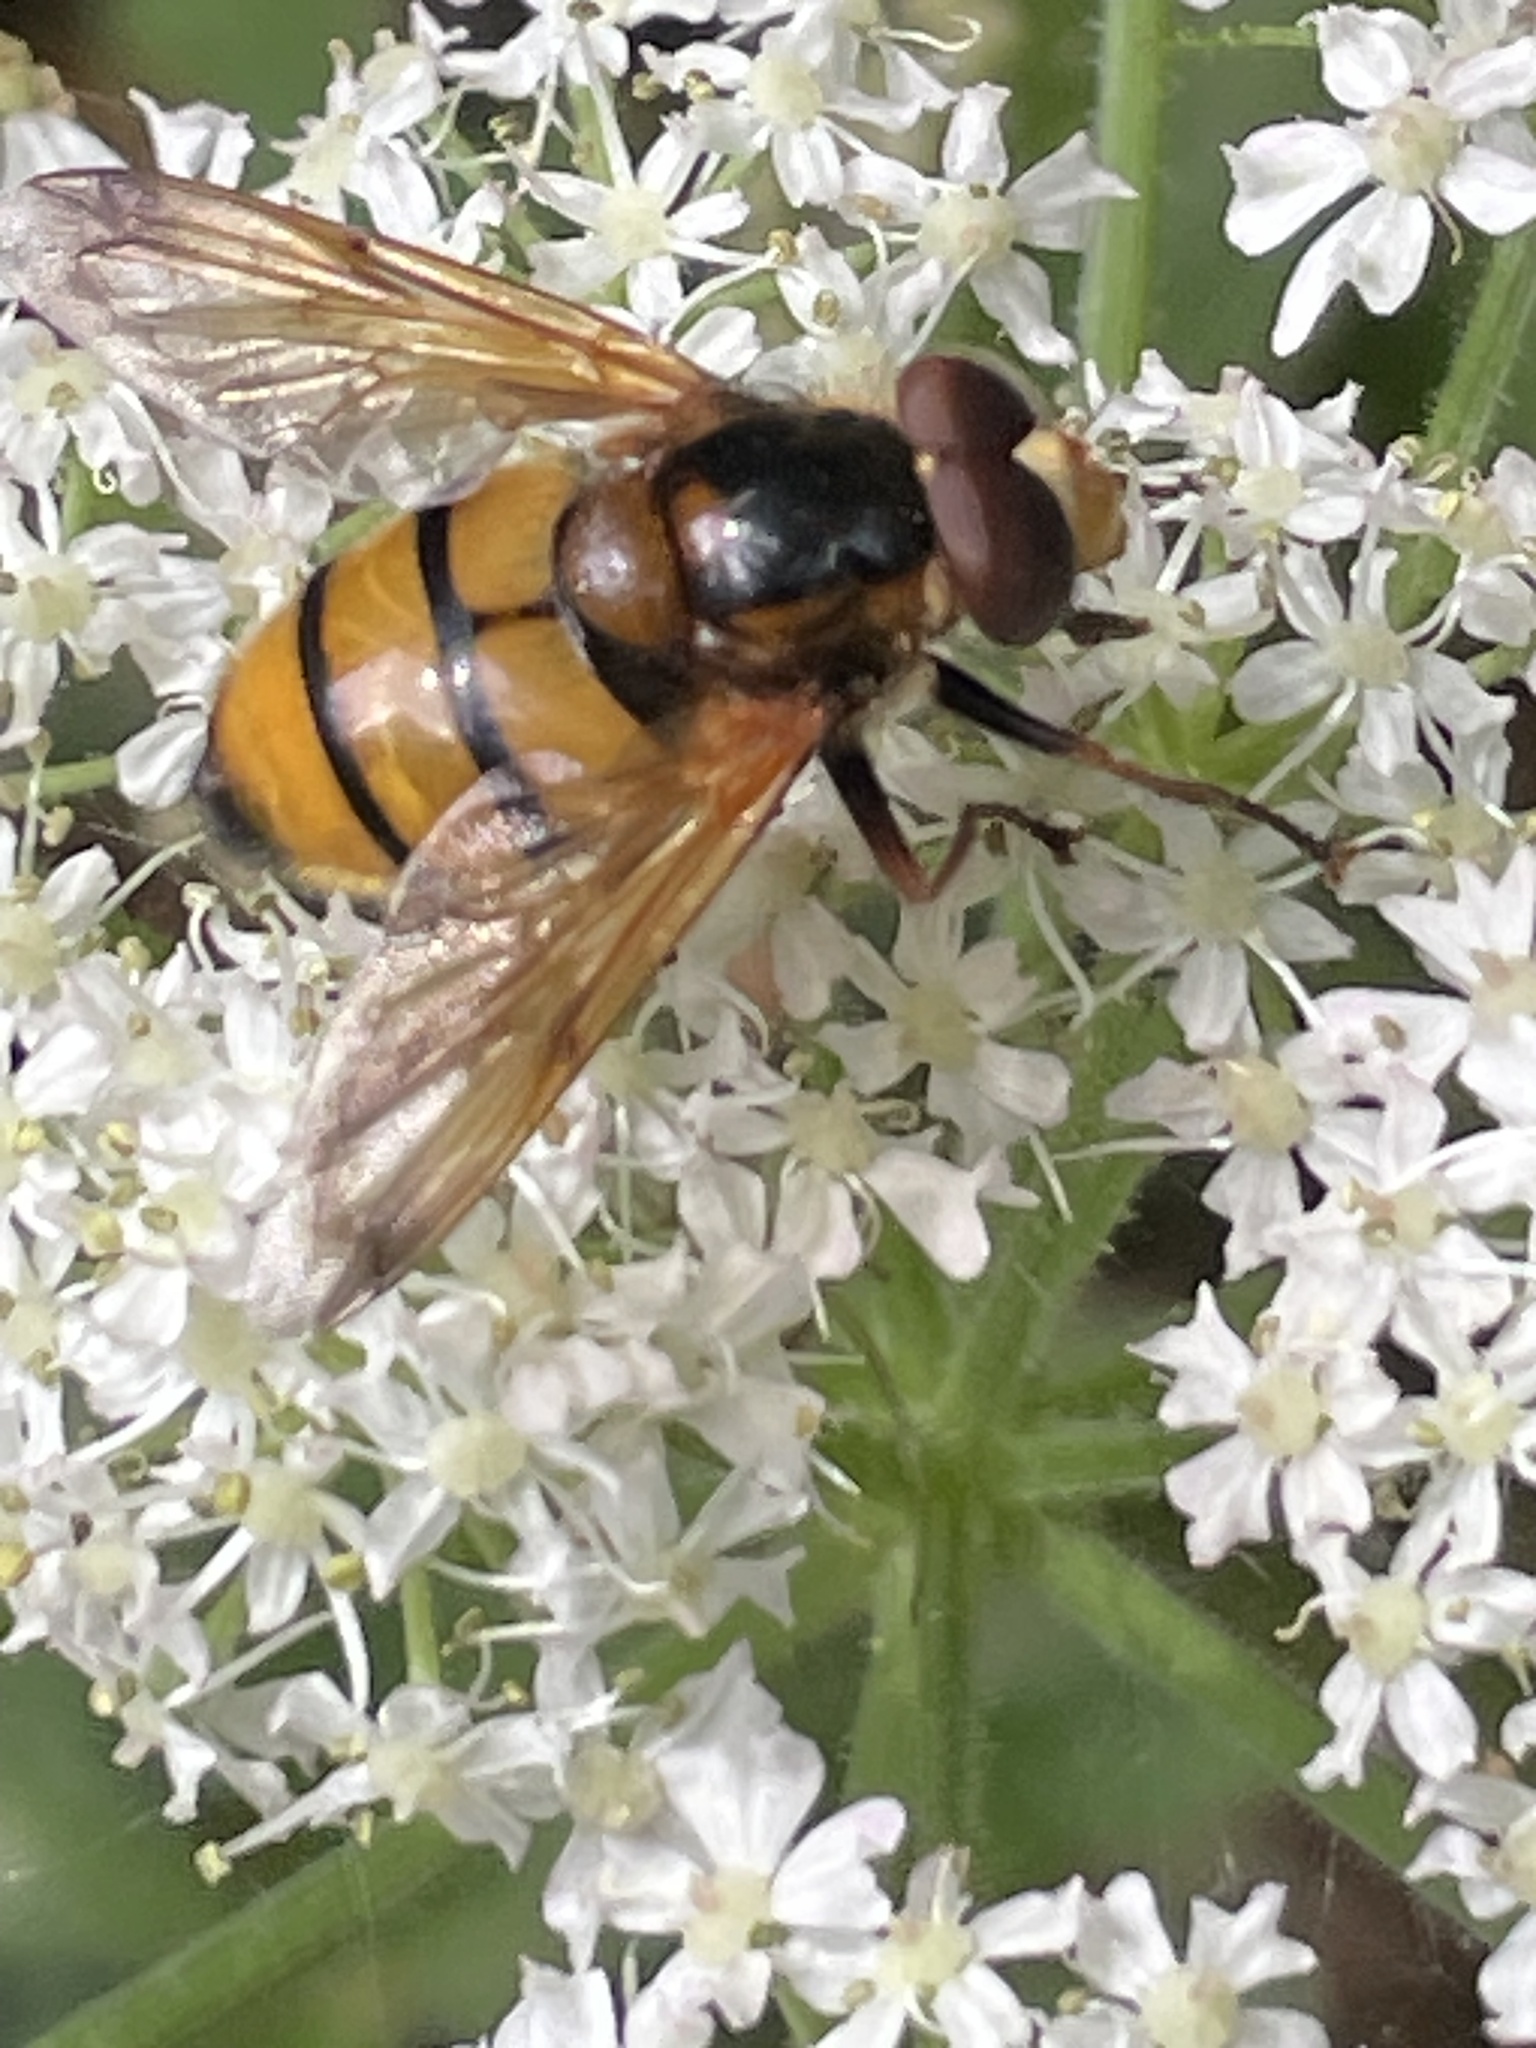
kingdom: Animalia
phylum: Arthropoda
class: Insecta
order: Diptera
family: Syrphidae
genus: Volucella
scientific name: Volucella inanis
